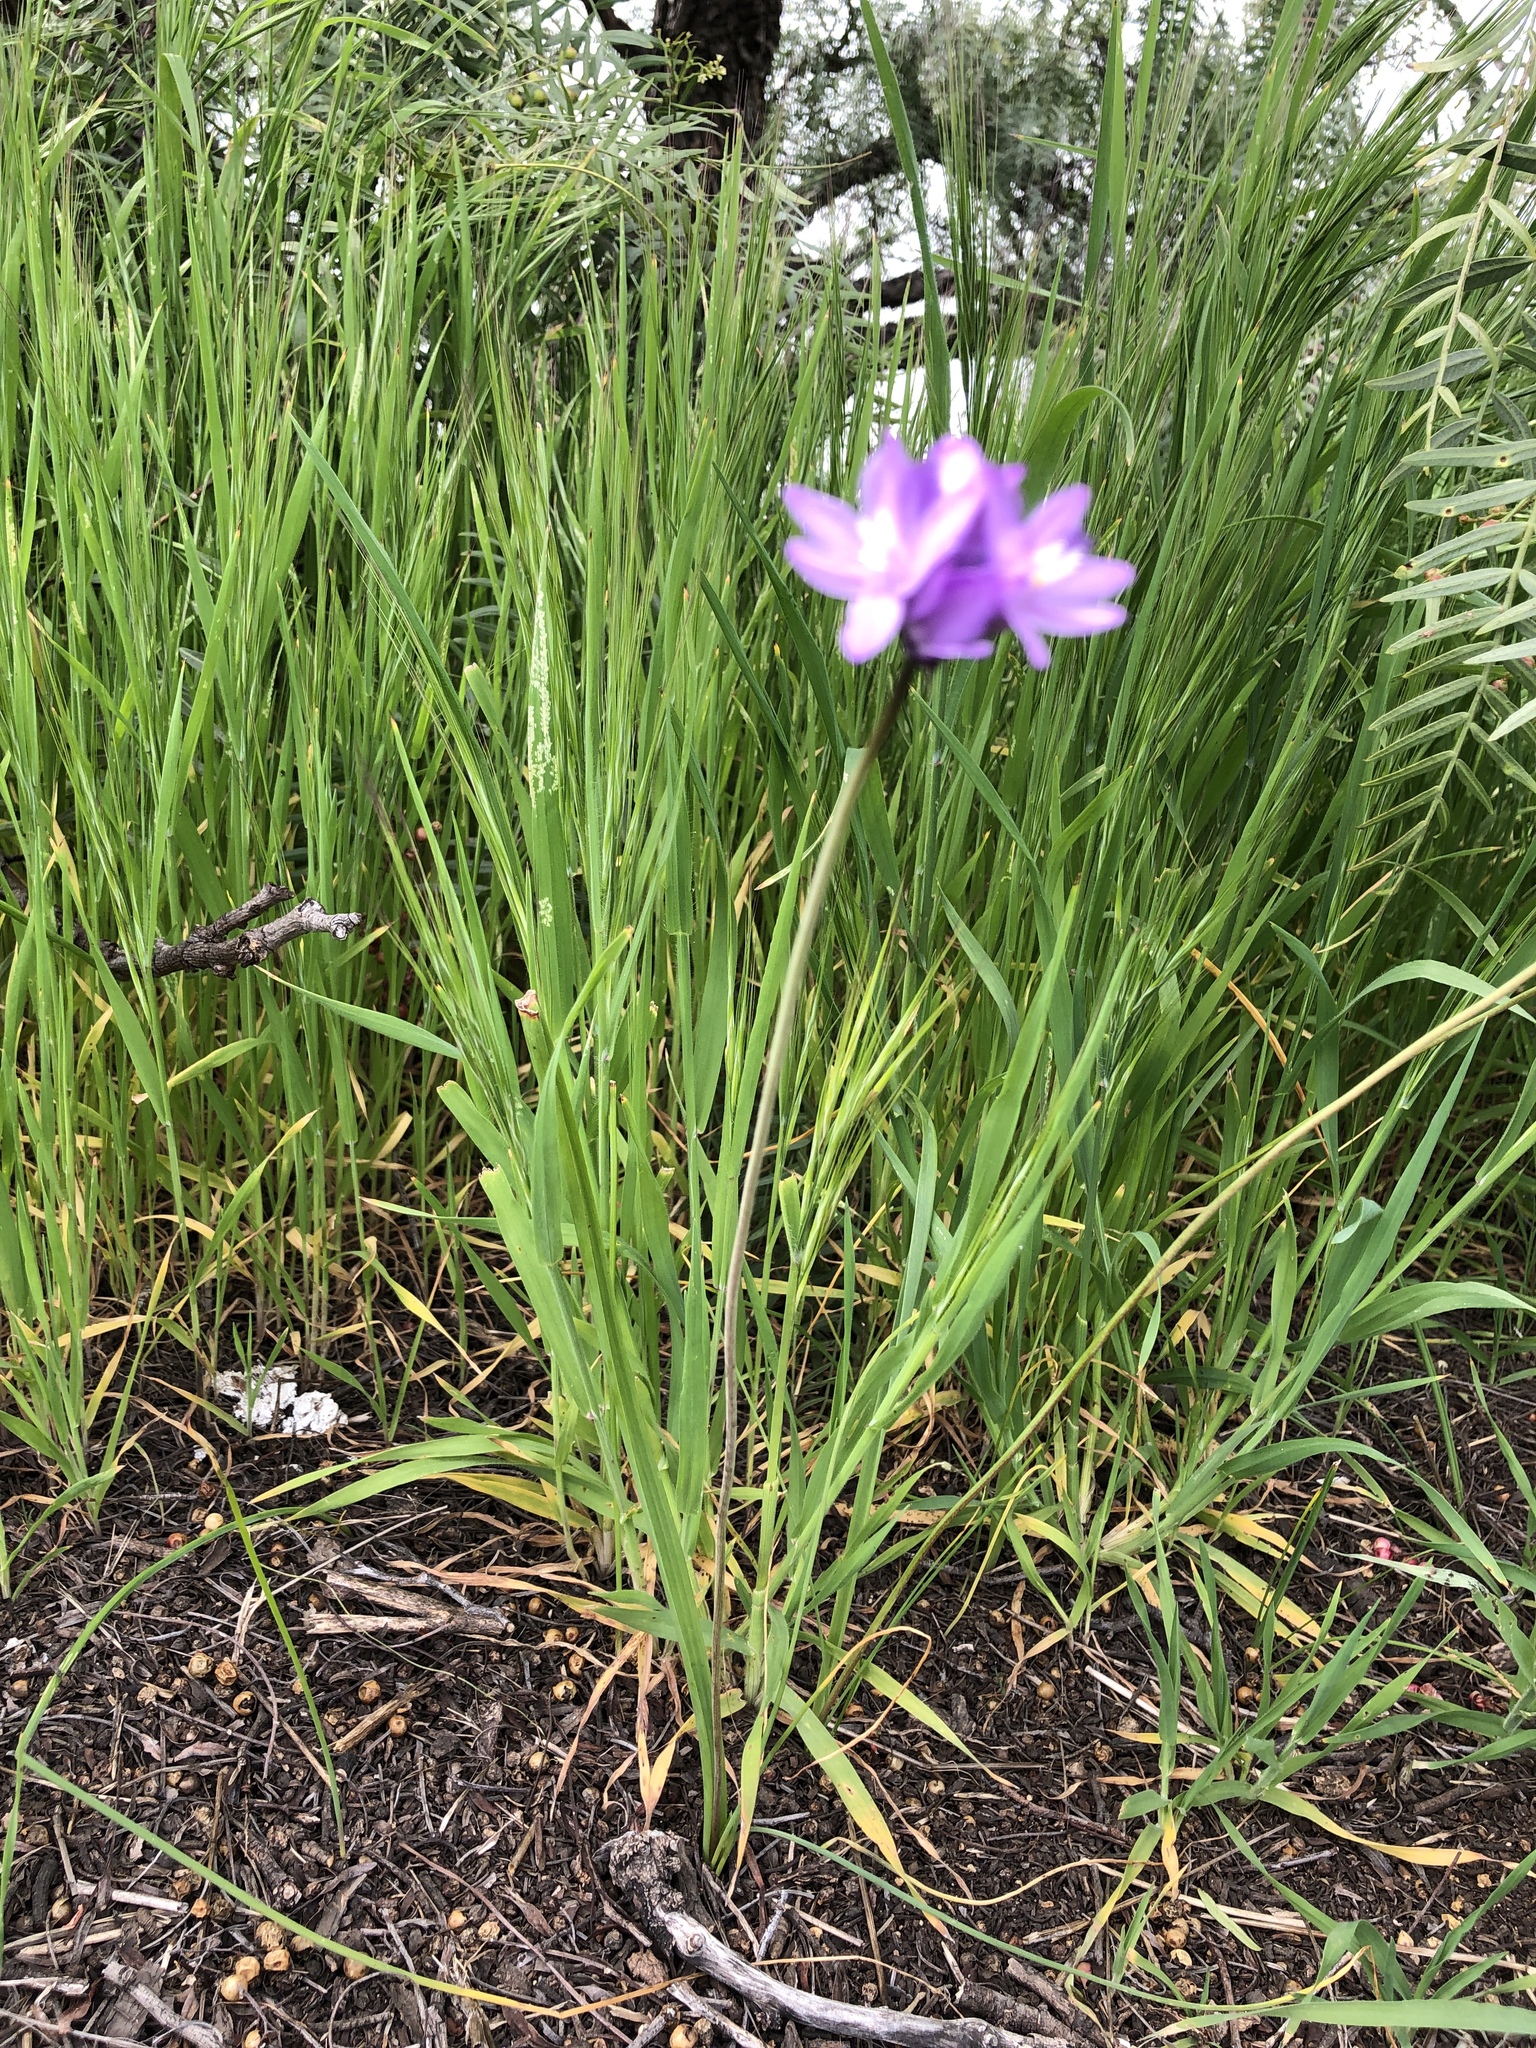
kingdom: Plantae
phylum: Tracheophyta
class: Liliopsida
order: Asparagales
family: Asparagaceae
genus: Dipterostemon
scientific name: Dipterostemon capitatus
